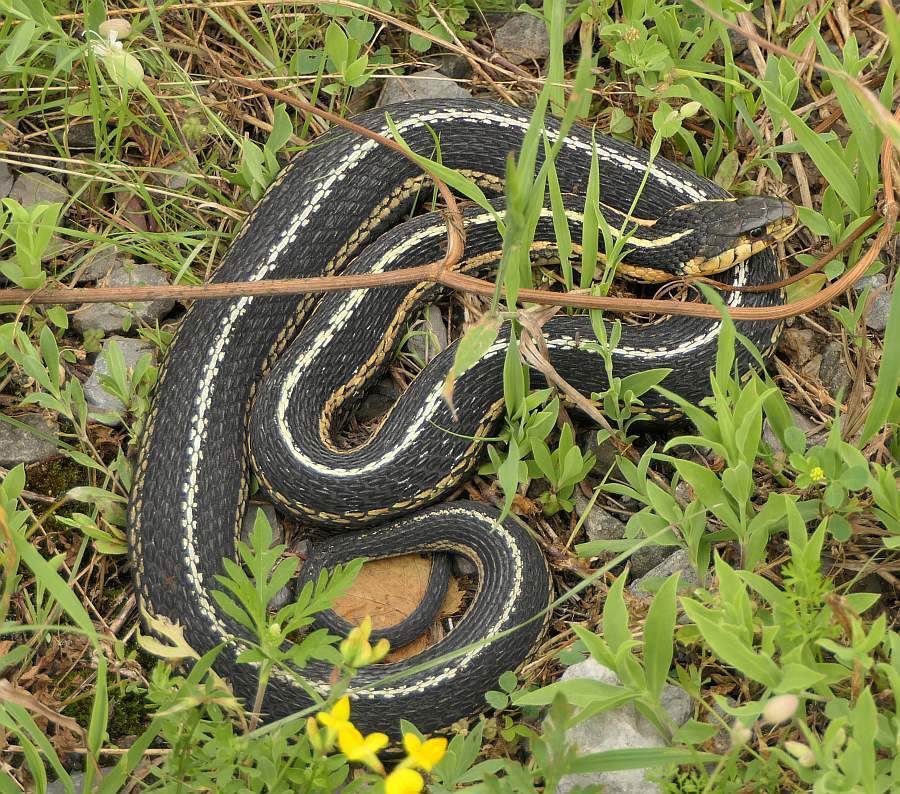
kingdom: Animalia
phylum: Chordata
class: Squamata
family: Colubridae
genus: Thamnophis
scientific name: Thamnophis sirtalis
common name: Common garter snake
